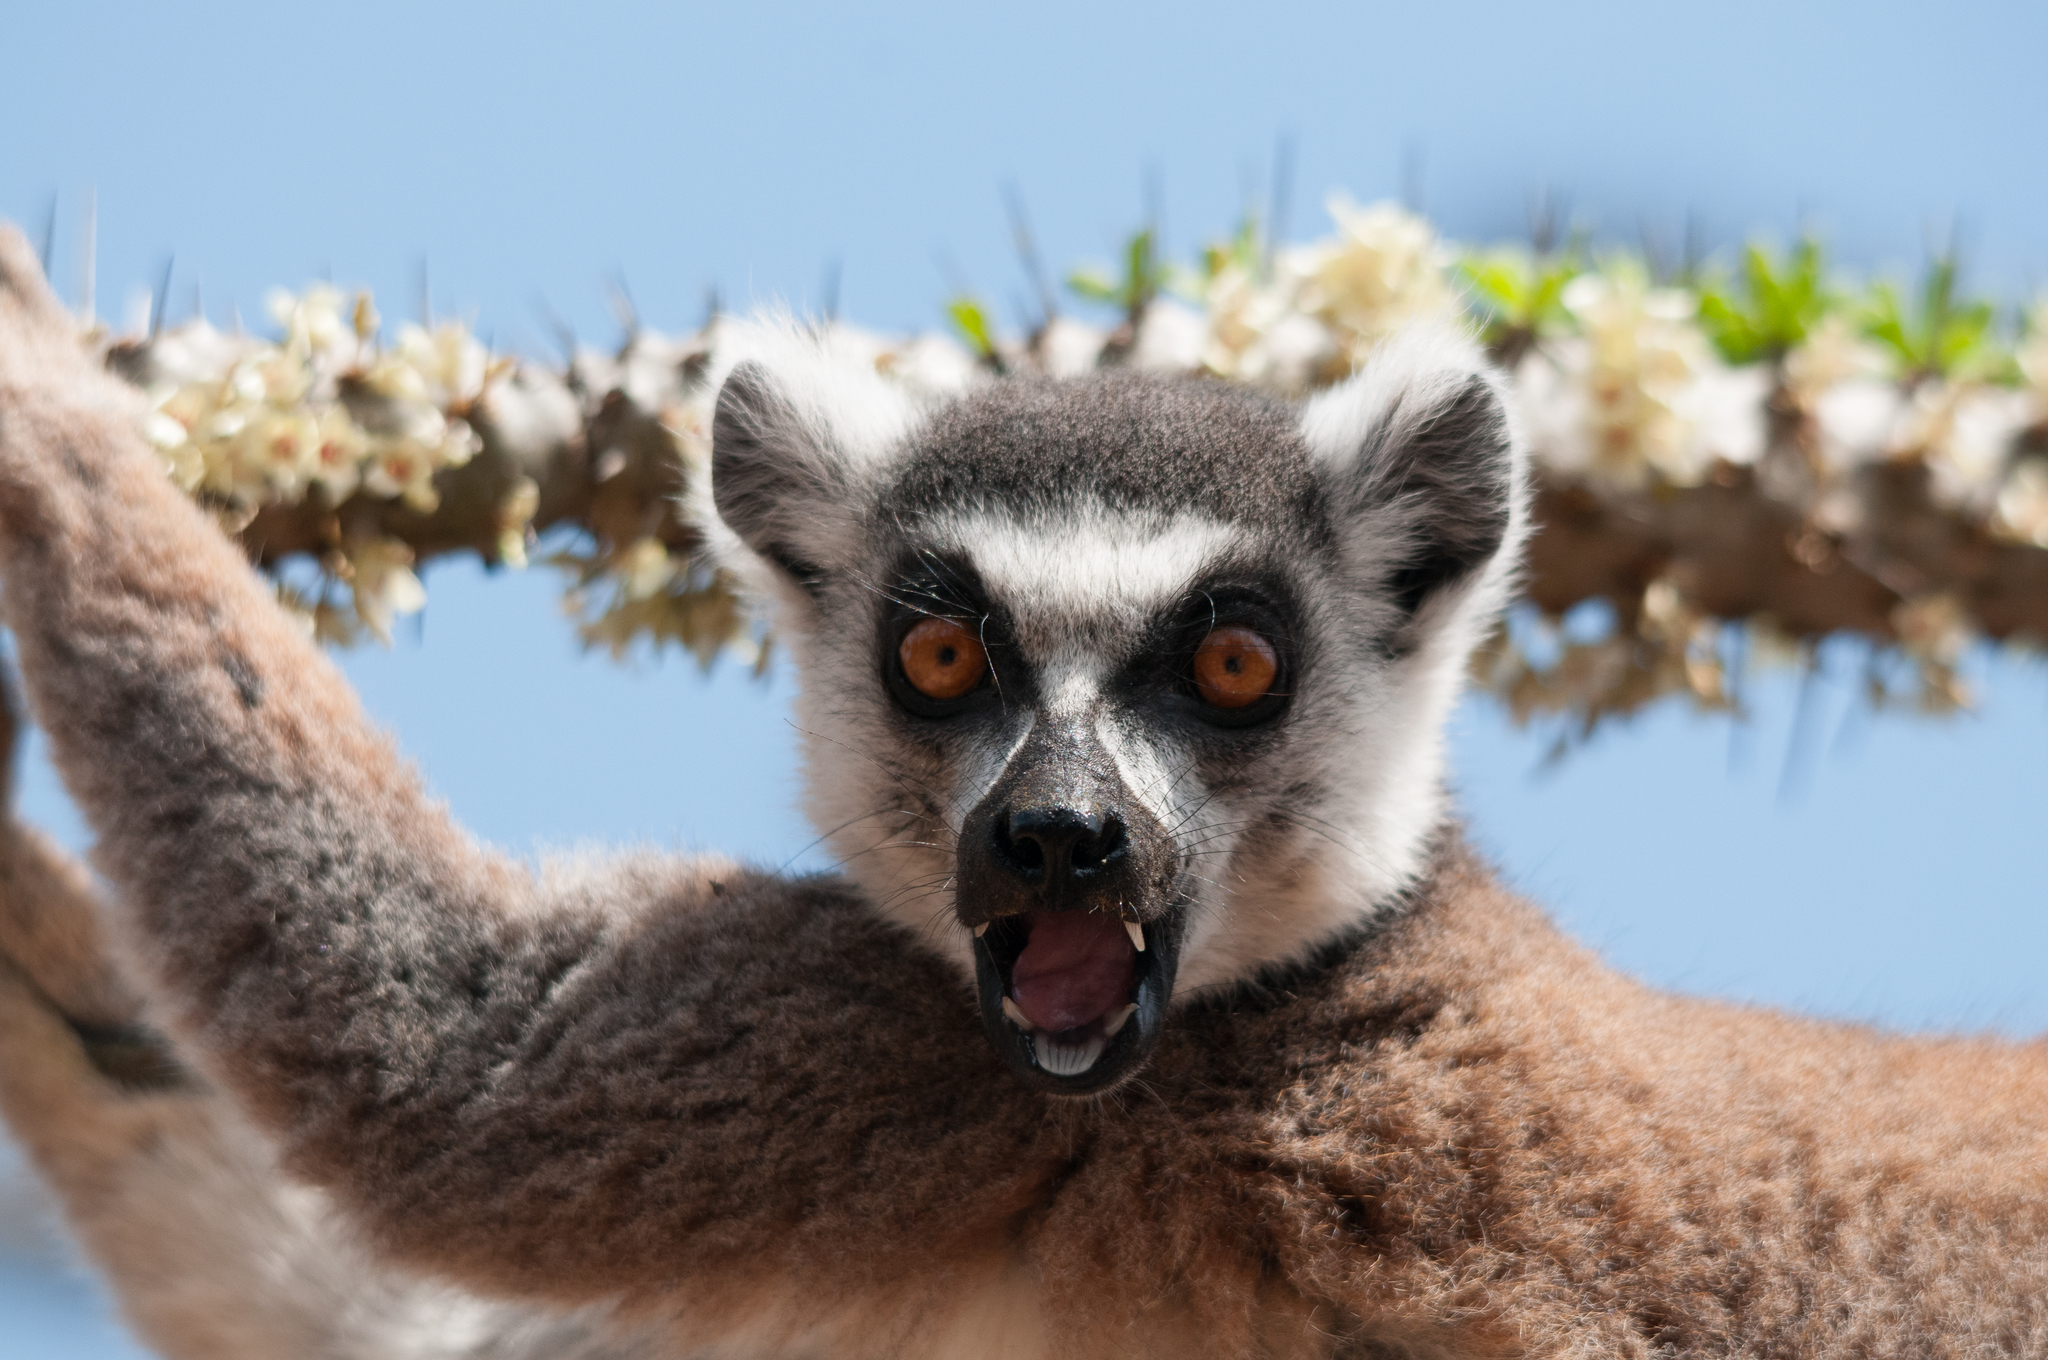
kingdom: Animalia
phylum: Chordata
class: Mammalia
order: Primates
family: Lemuridae
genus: Lemur
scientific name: Lemur catta
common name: Ring-tailed lemur
